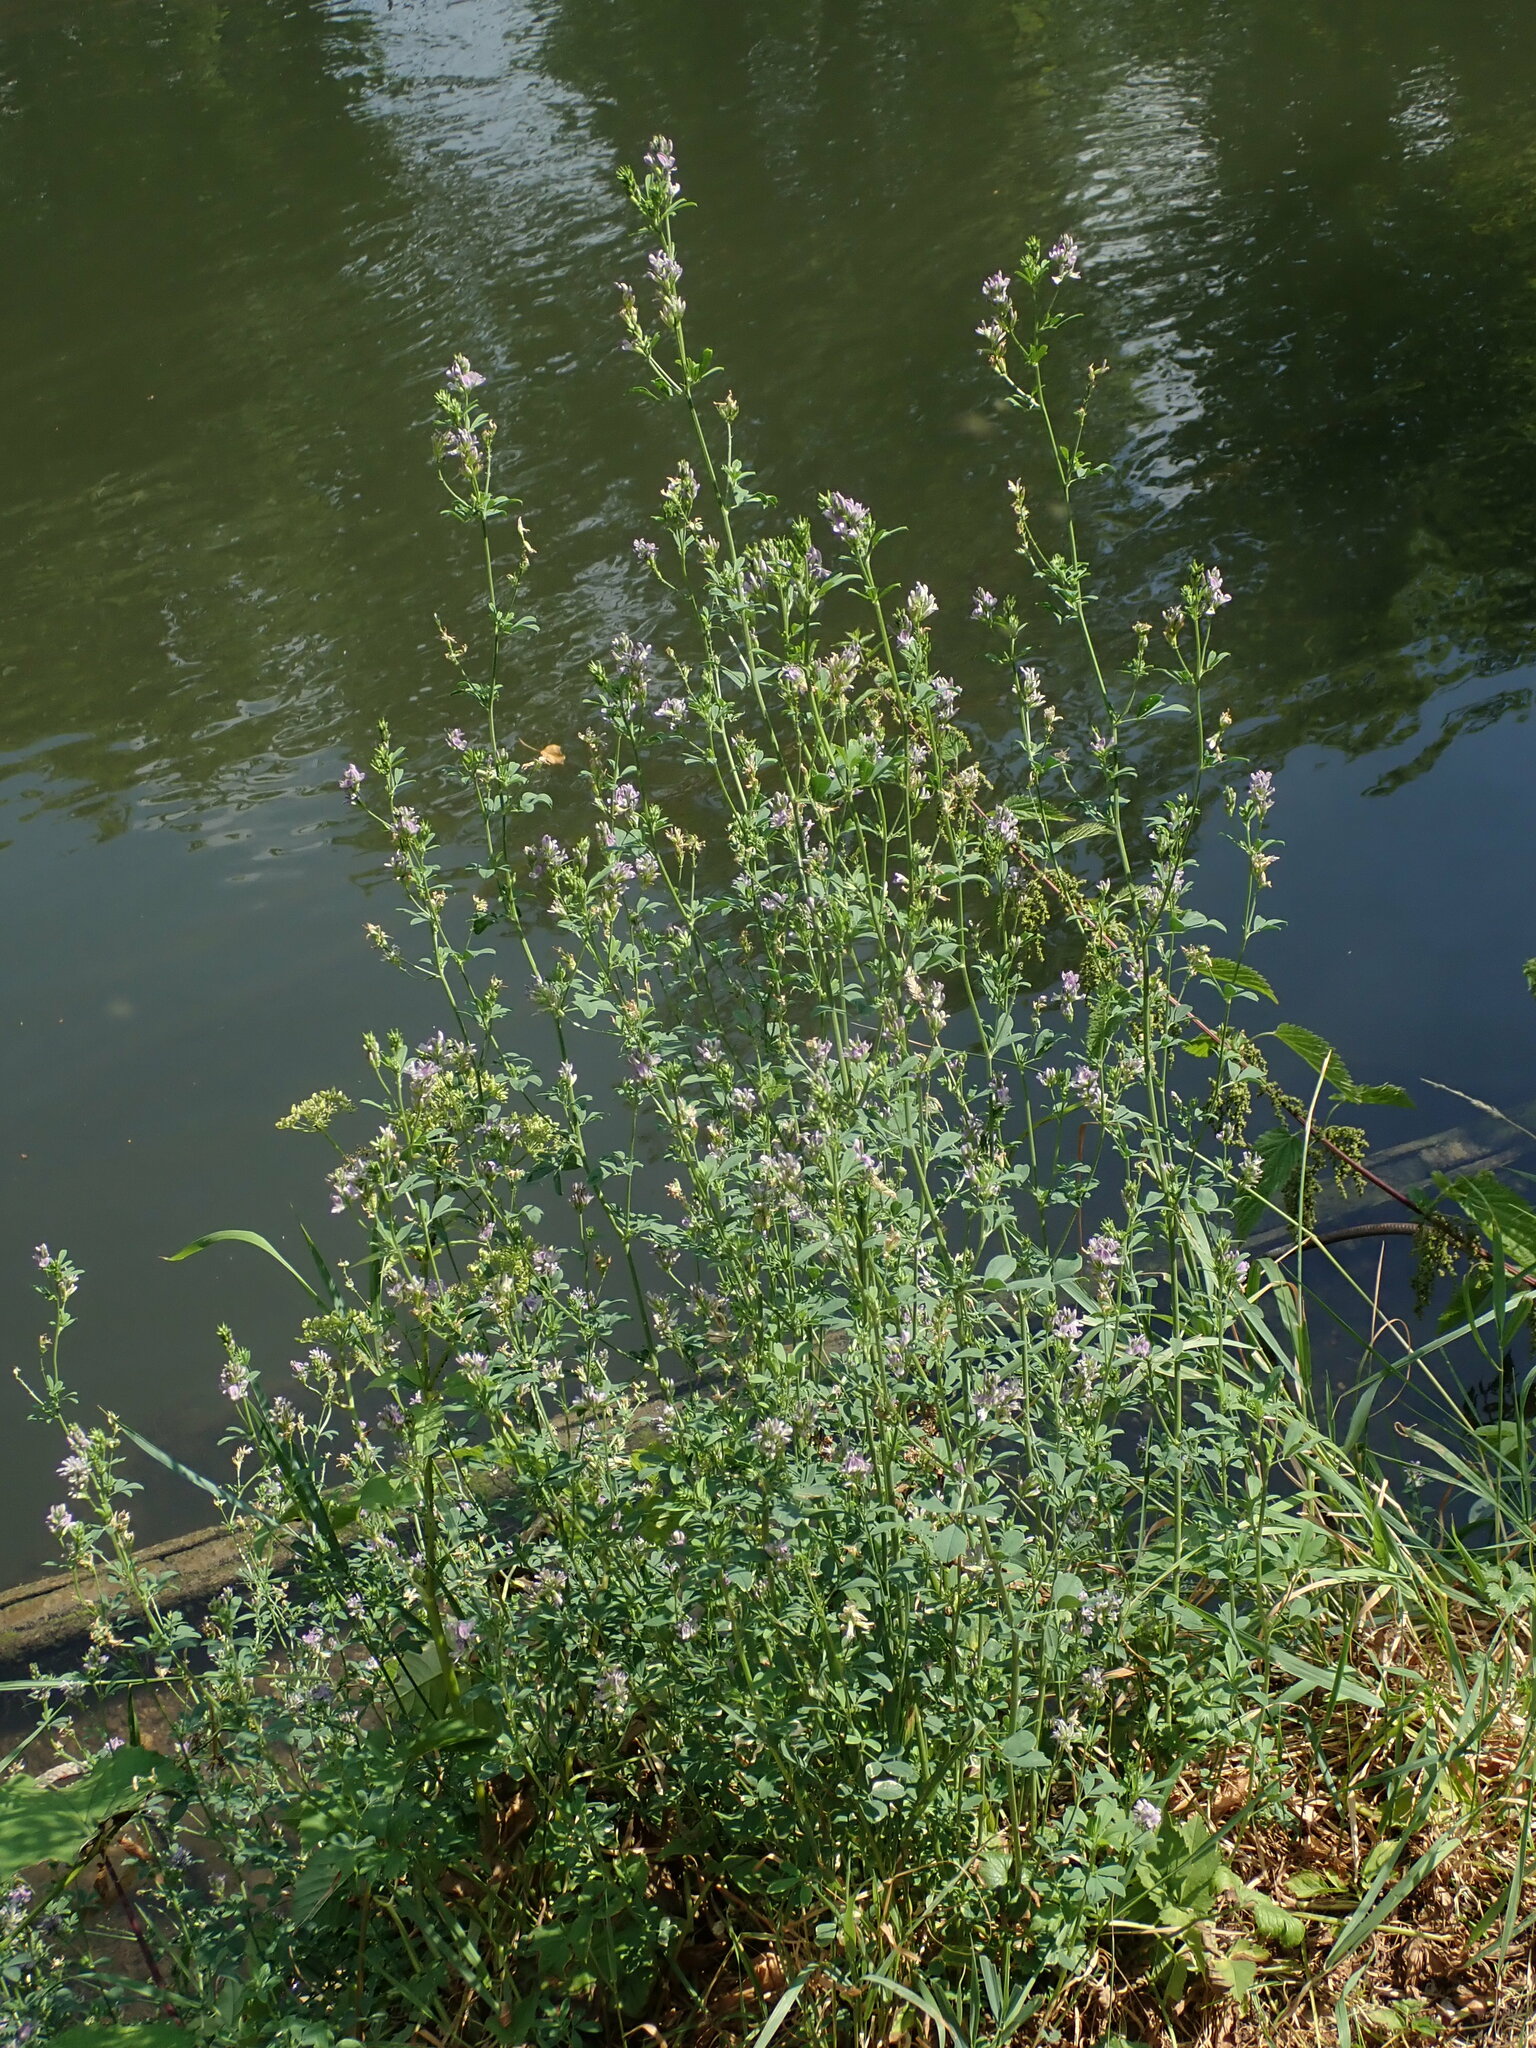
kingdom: Plantae
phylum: Tracheophyta
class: Magnoliopsida
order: Fabales
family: Fabaceae
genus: Medicago
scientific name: Medicago sativa
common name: Alfalfa
